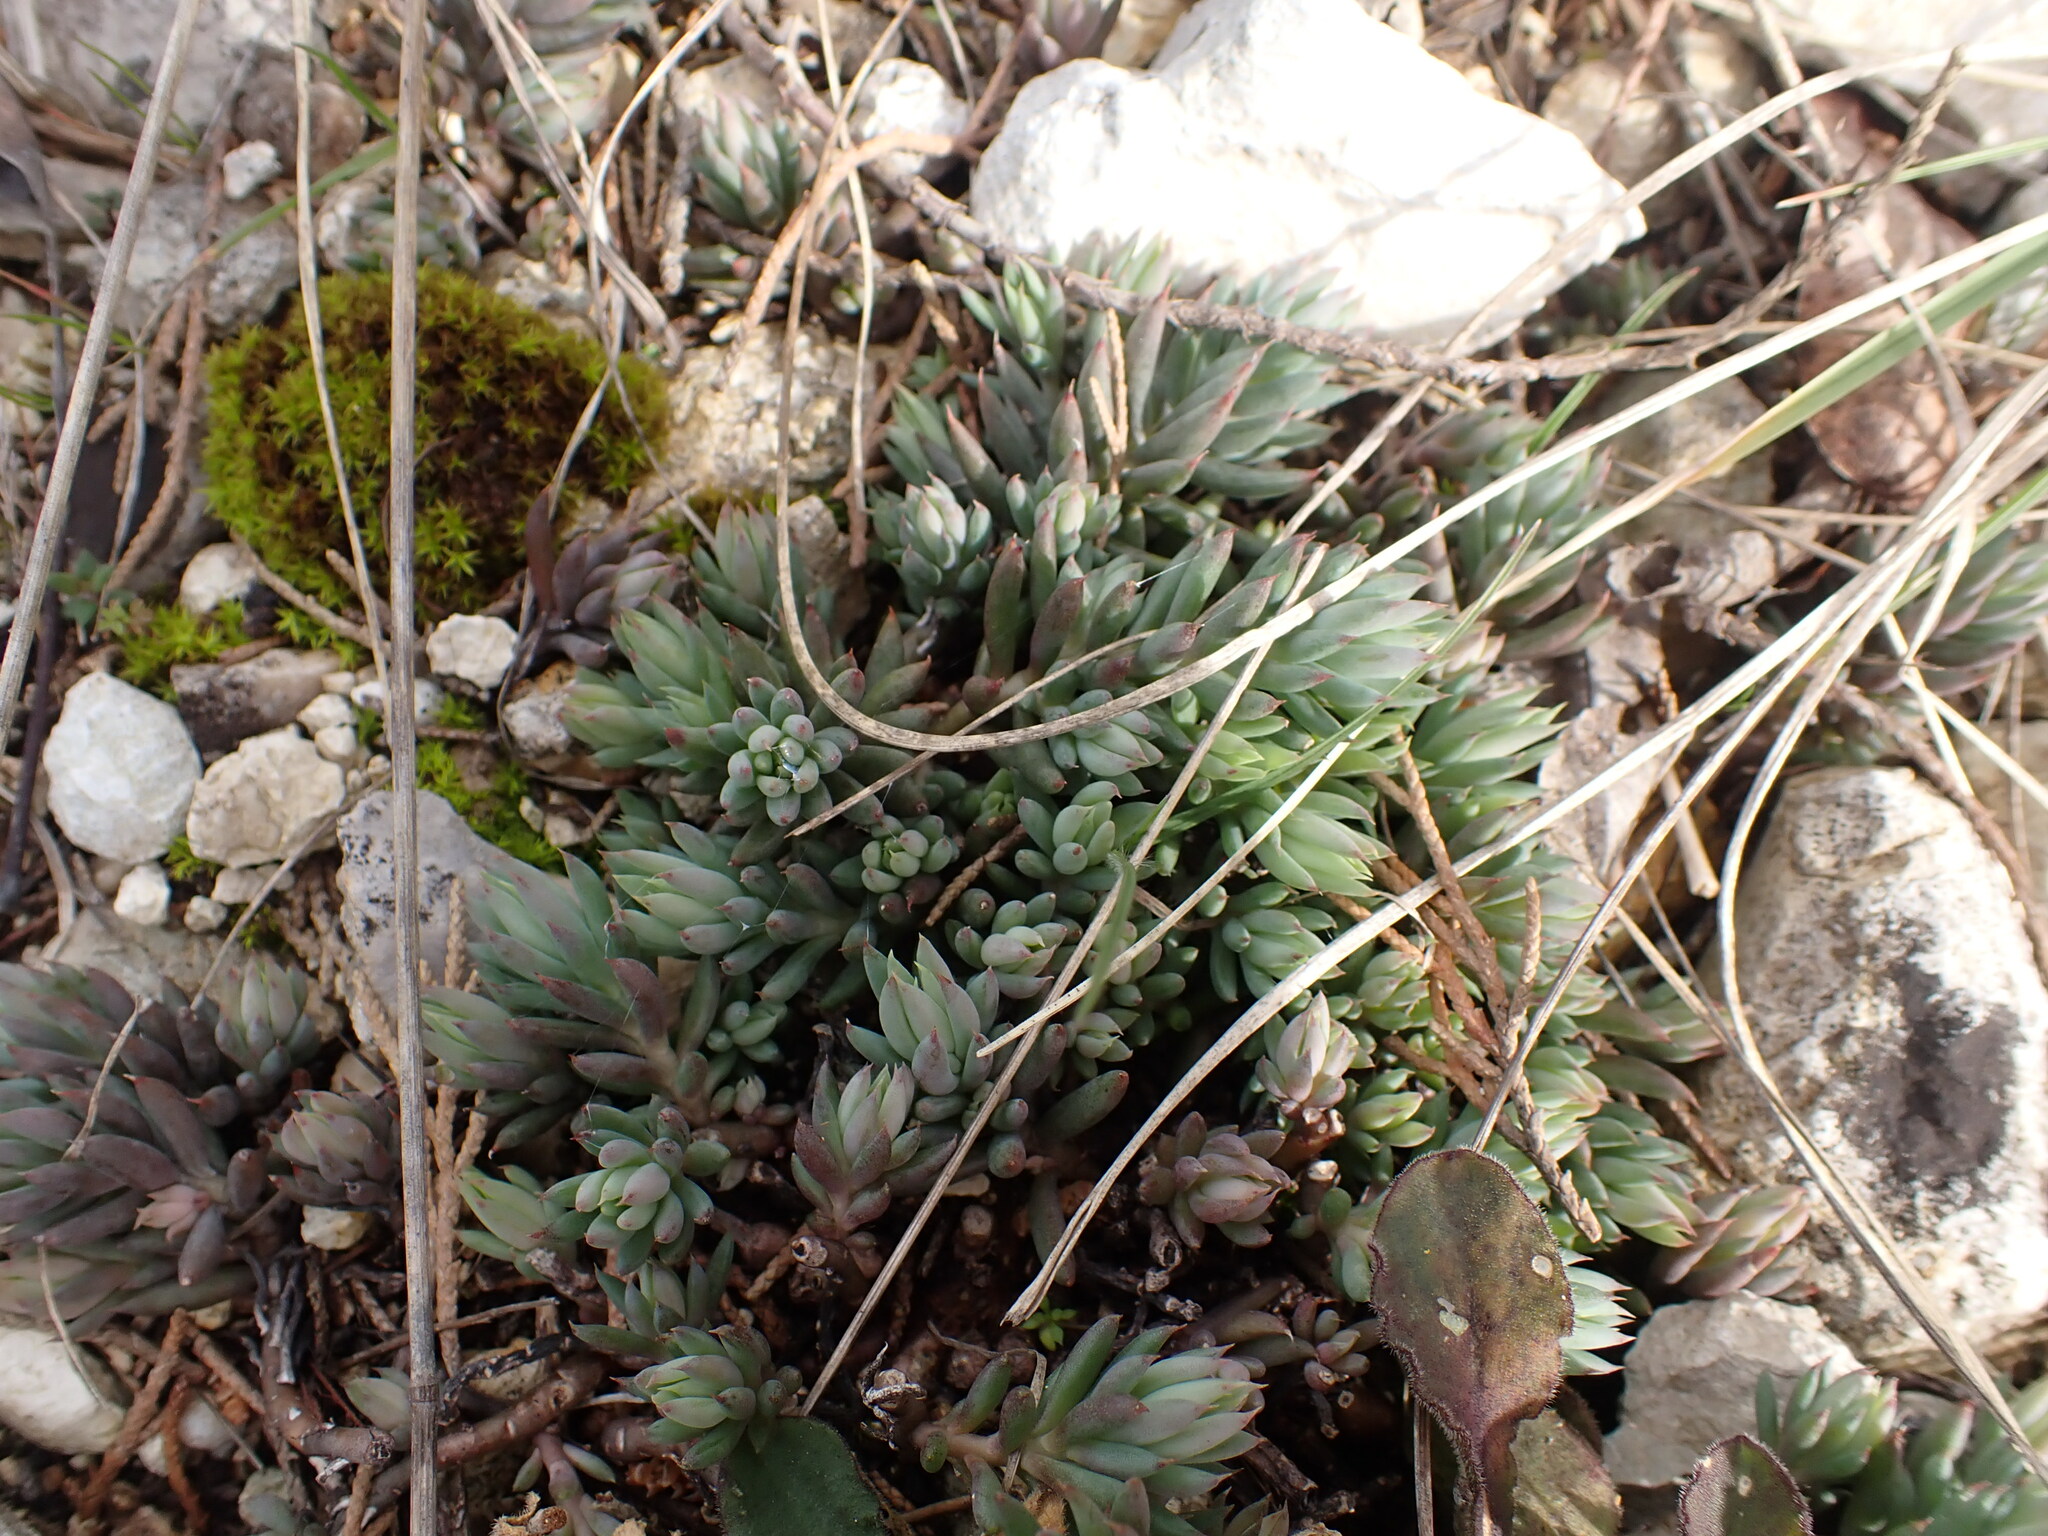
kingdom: Plantae
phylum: Tracheophyta
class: Magnoliopsida
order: Saxifragales
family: Crassulaceae
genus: Petrosedum
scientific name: Petrosedum sediforme
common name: Pale stonecrop
